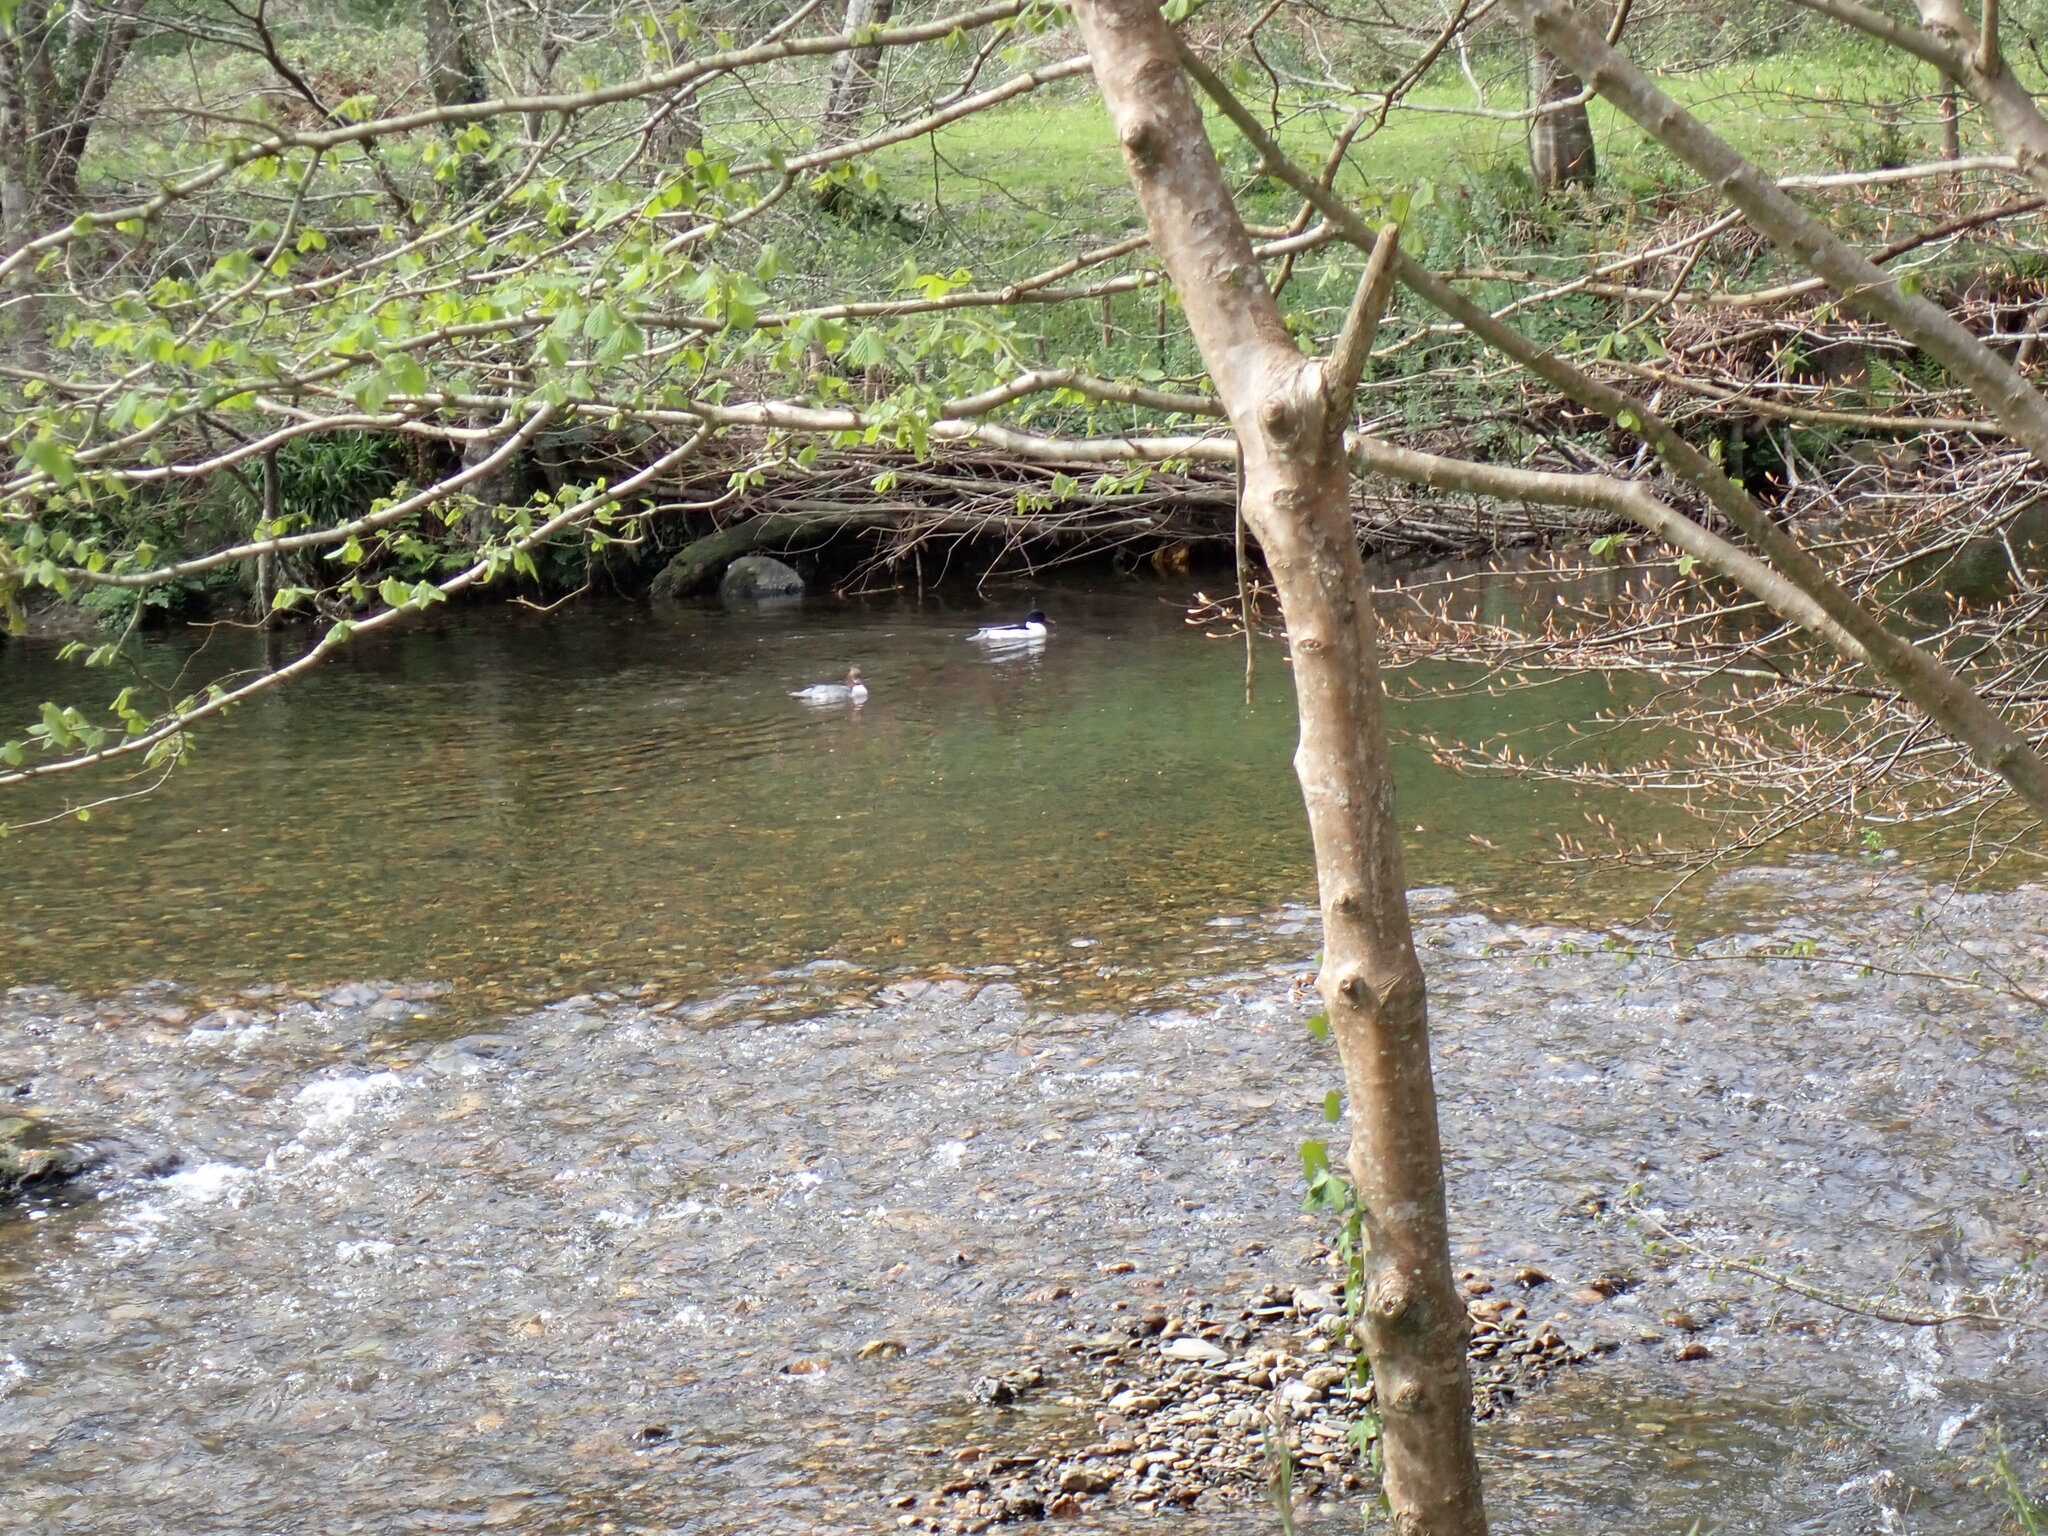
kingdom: Animalia
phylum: Chordata
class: Aves
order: Anseriformes
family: Anatidae
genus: Mergus
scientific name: Mergus merganser
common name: Common merganser
